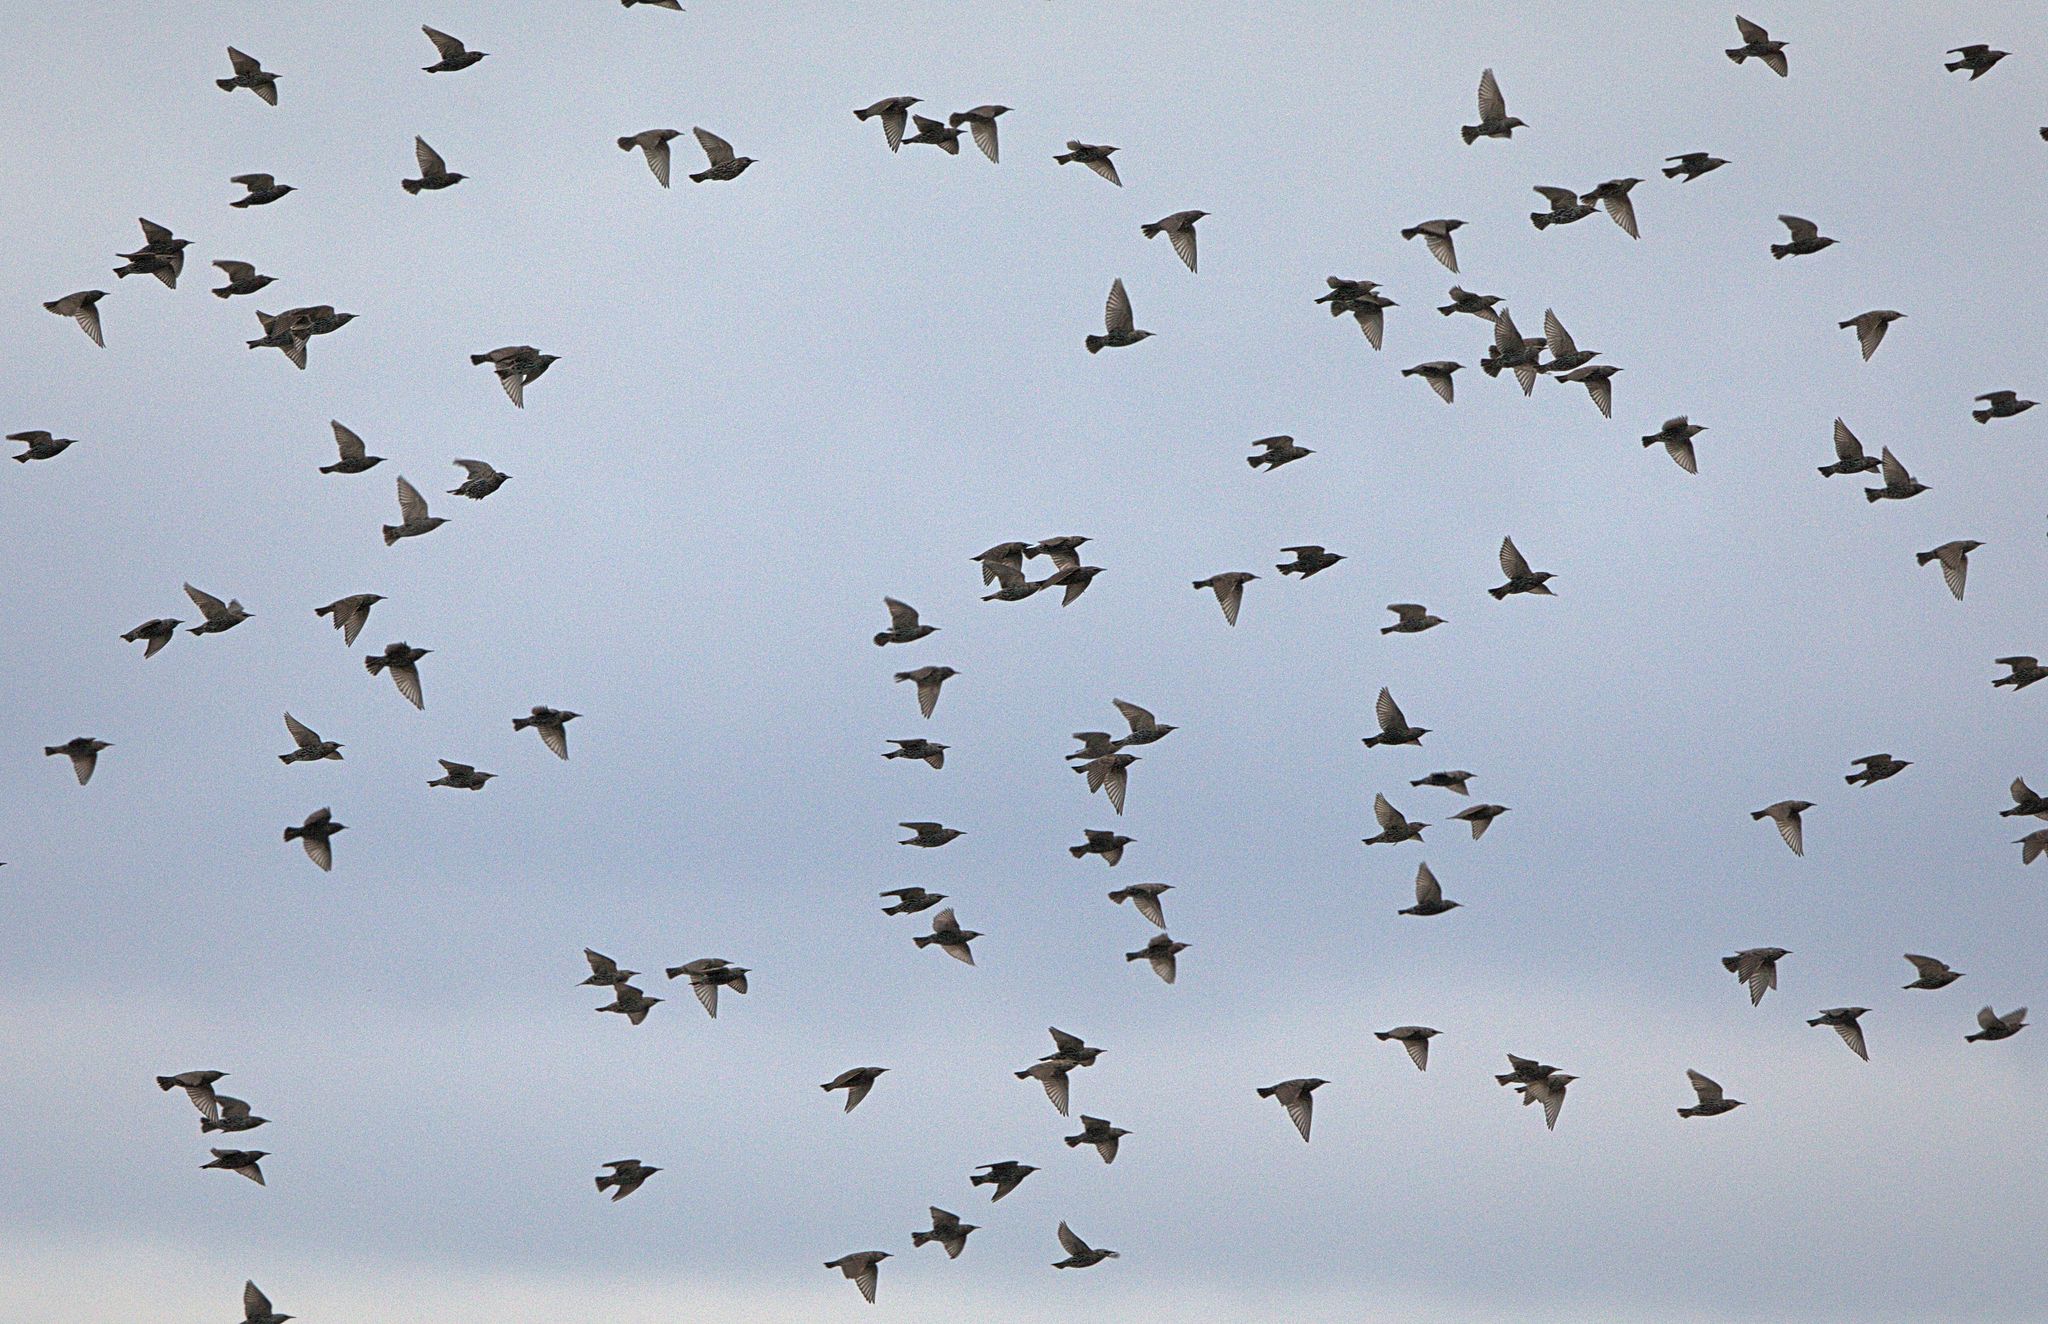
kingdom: Animalia
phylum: Chordata
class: Aves
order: Passeriformes
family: Sturnidae
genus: Sturnus
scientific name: Sturnus vulgaris
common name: Common starling
